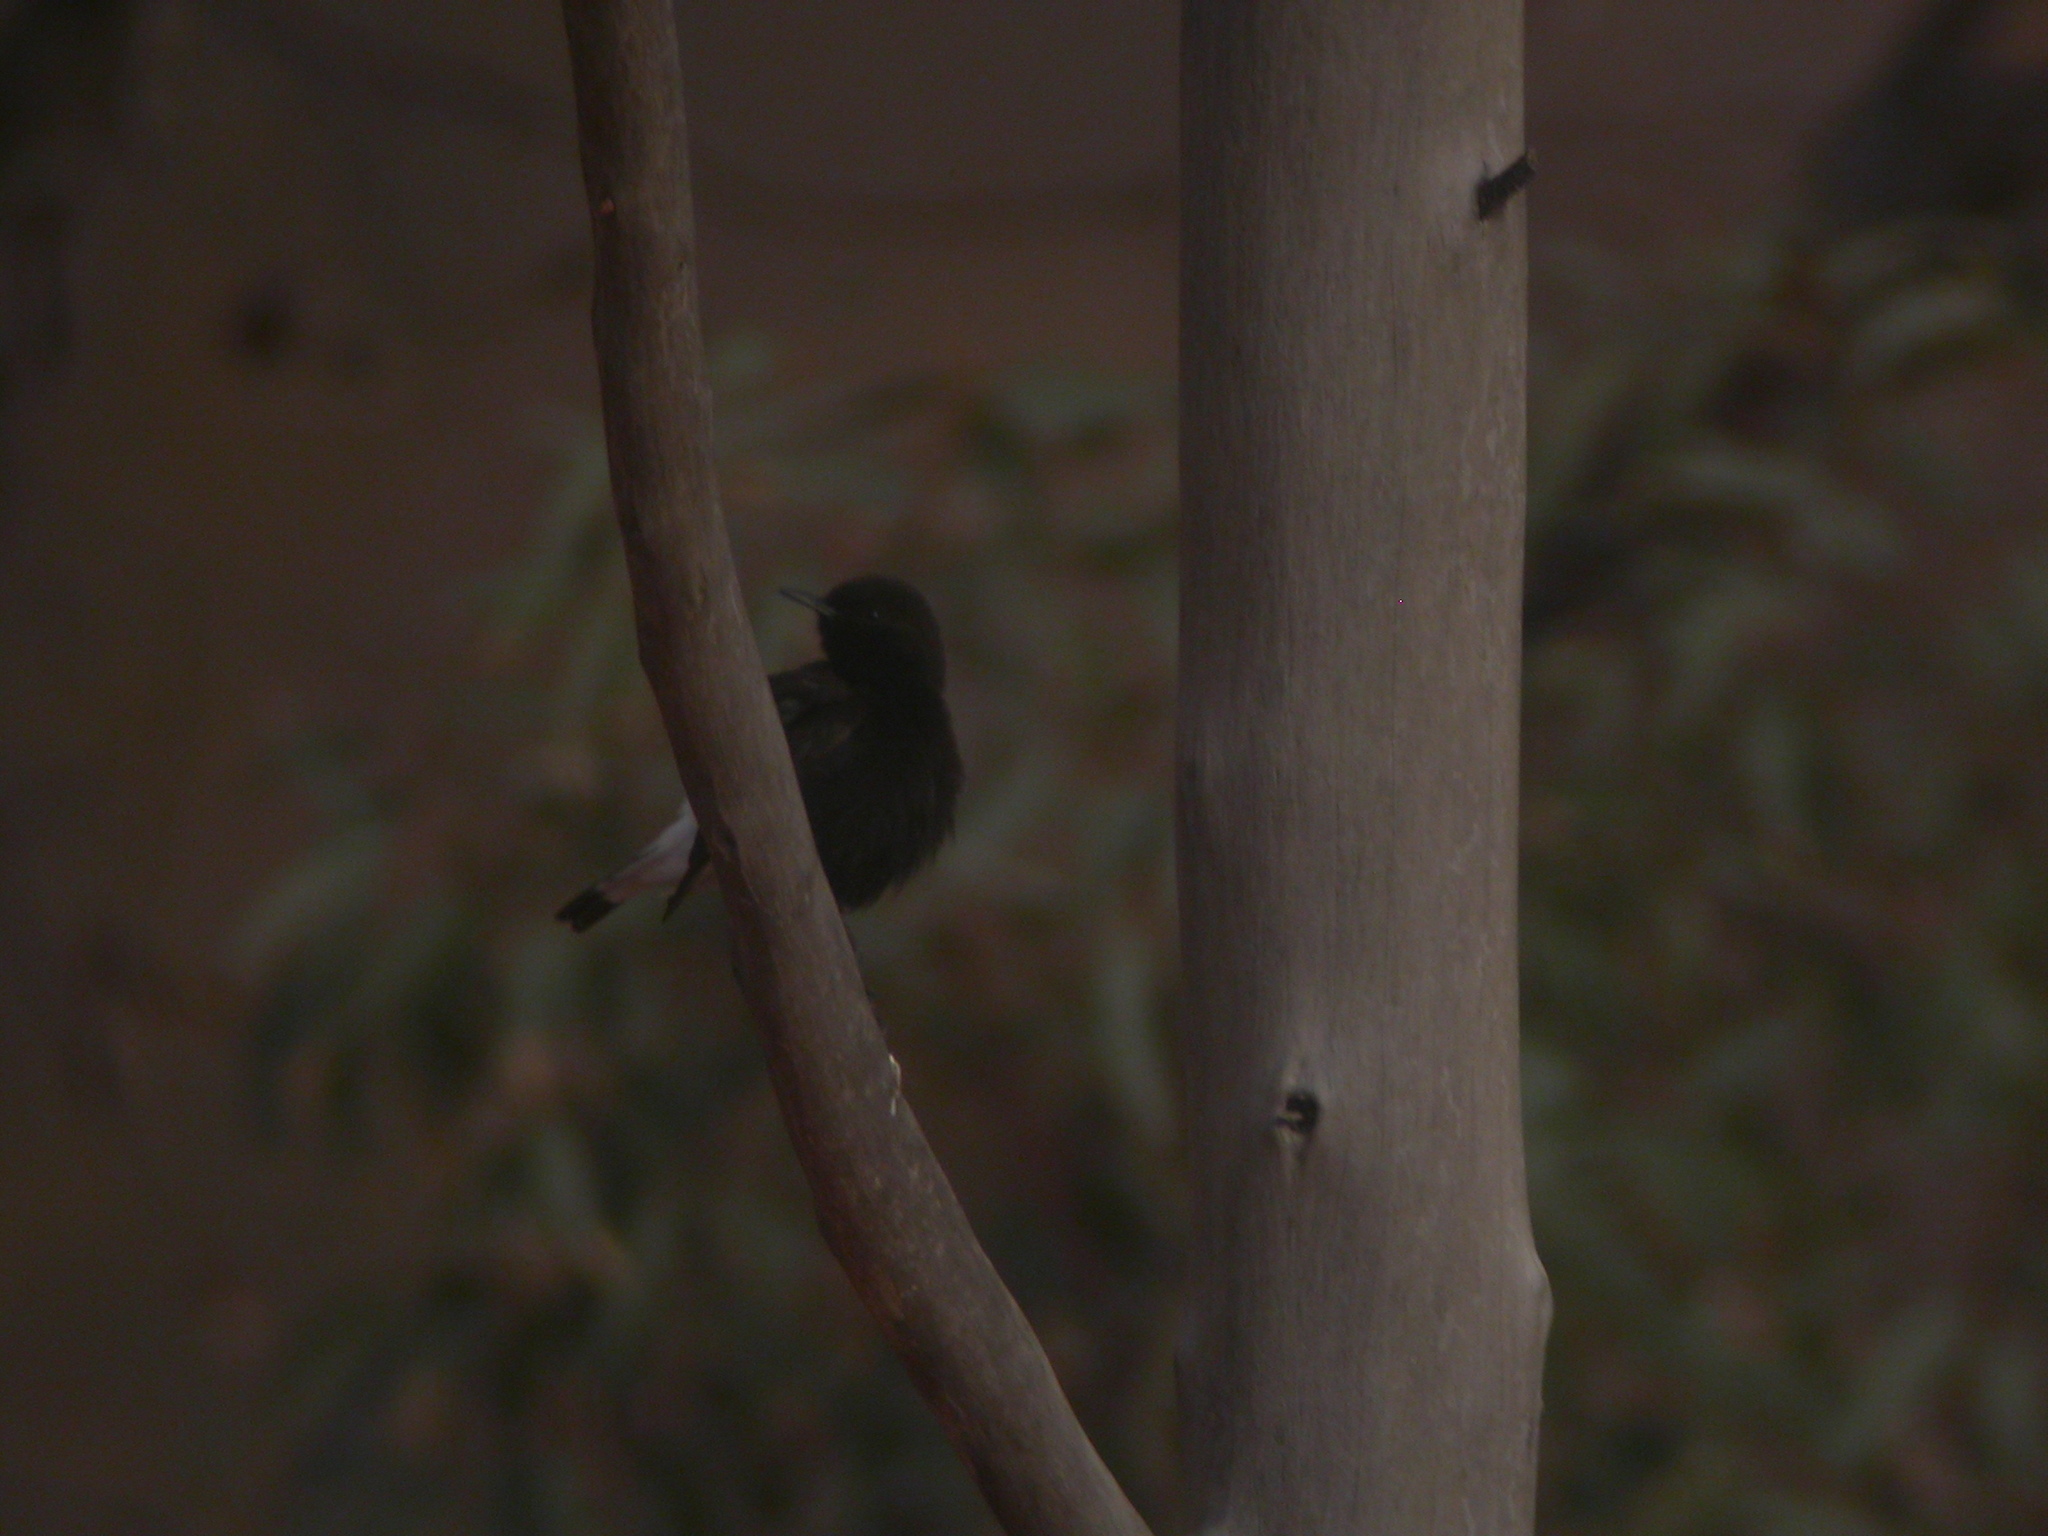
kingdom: Animalia
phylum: Chordata
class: Aves
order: Passeriformes
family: Muscicapidae
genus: Oenanthe
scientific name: Oenanthe leucura
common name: Black wheatear
